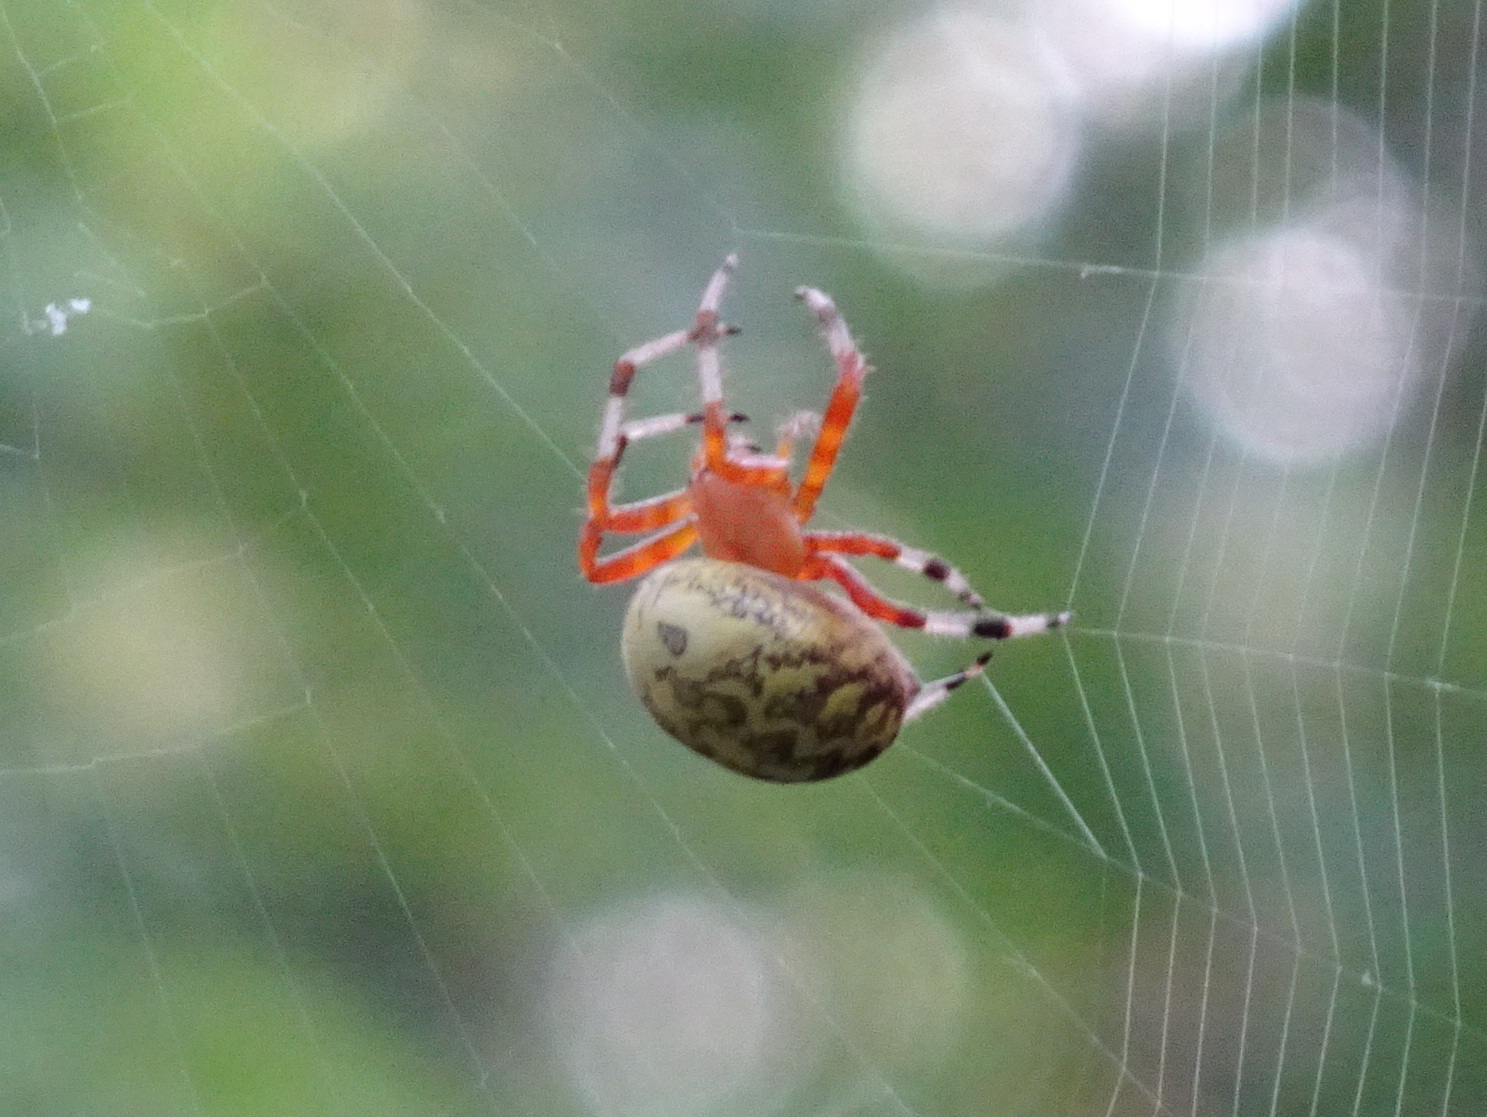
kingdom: Animalia
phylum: Arthropoda
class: Arachnida
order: Araneae
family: Araneidae
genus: Araneus
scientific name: Araneus marmoreus
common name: Marbled orbweaver
